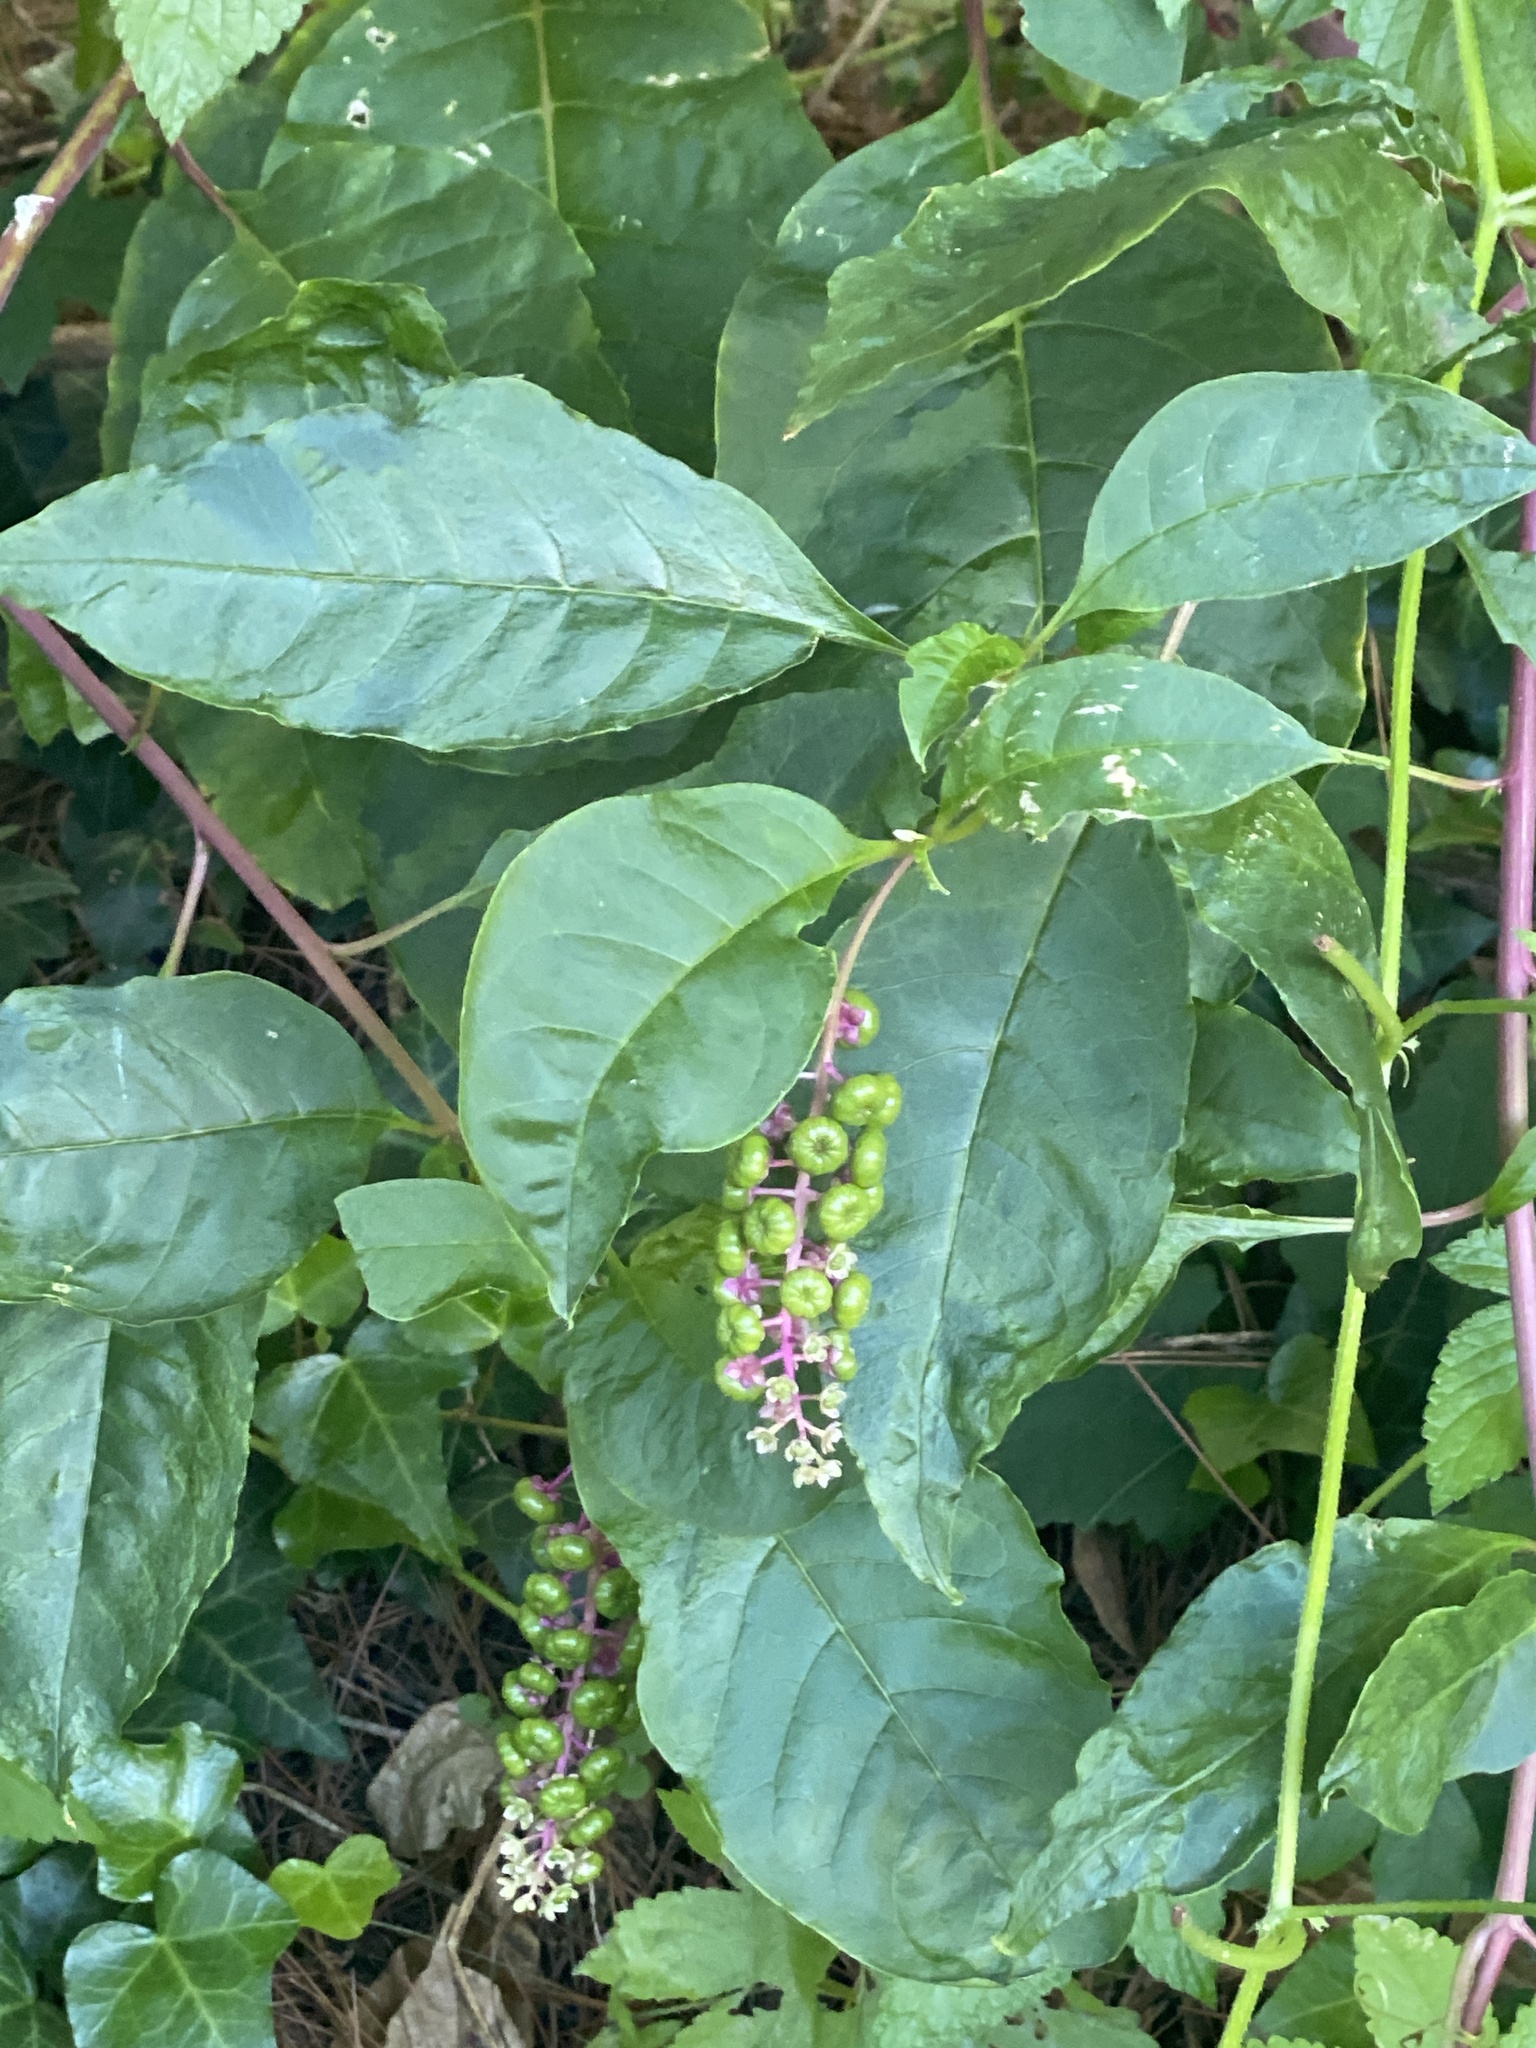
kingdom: Plantae
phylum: Tracheophyta
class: Magnoliopsida
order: Caryophyllales
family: Phytolaccaceae
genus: Phytolacca
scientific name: Phytolacca americana
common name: American pokeweed
